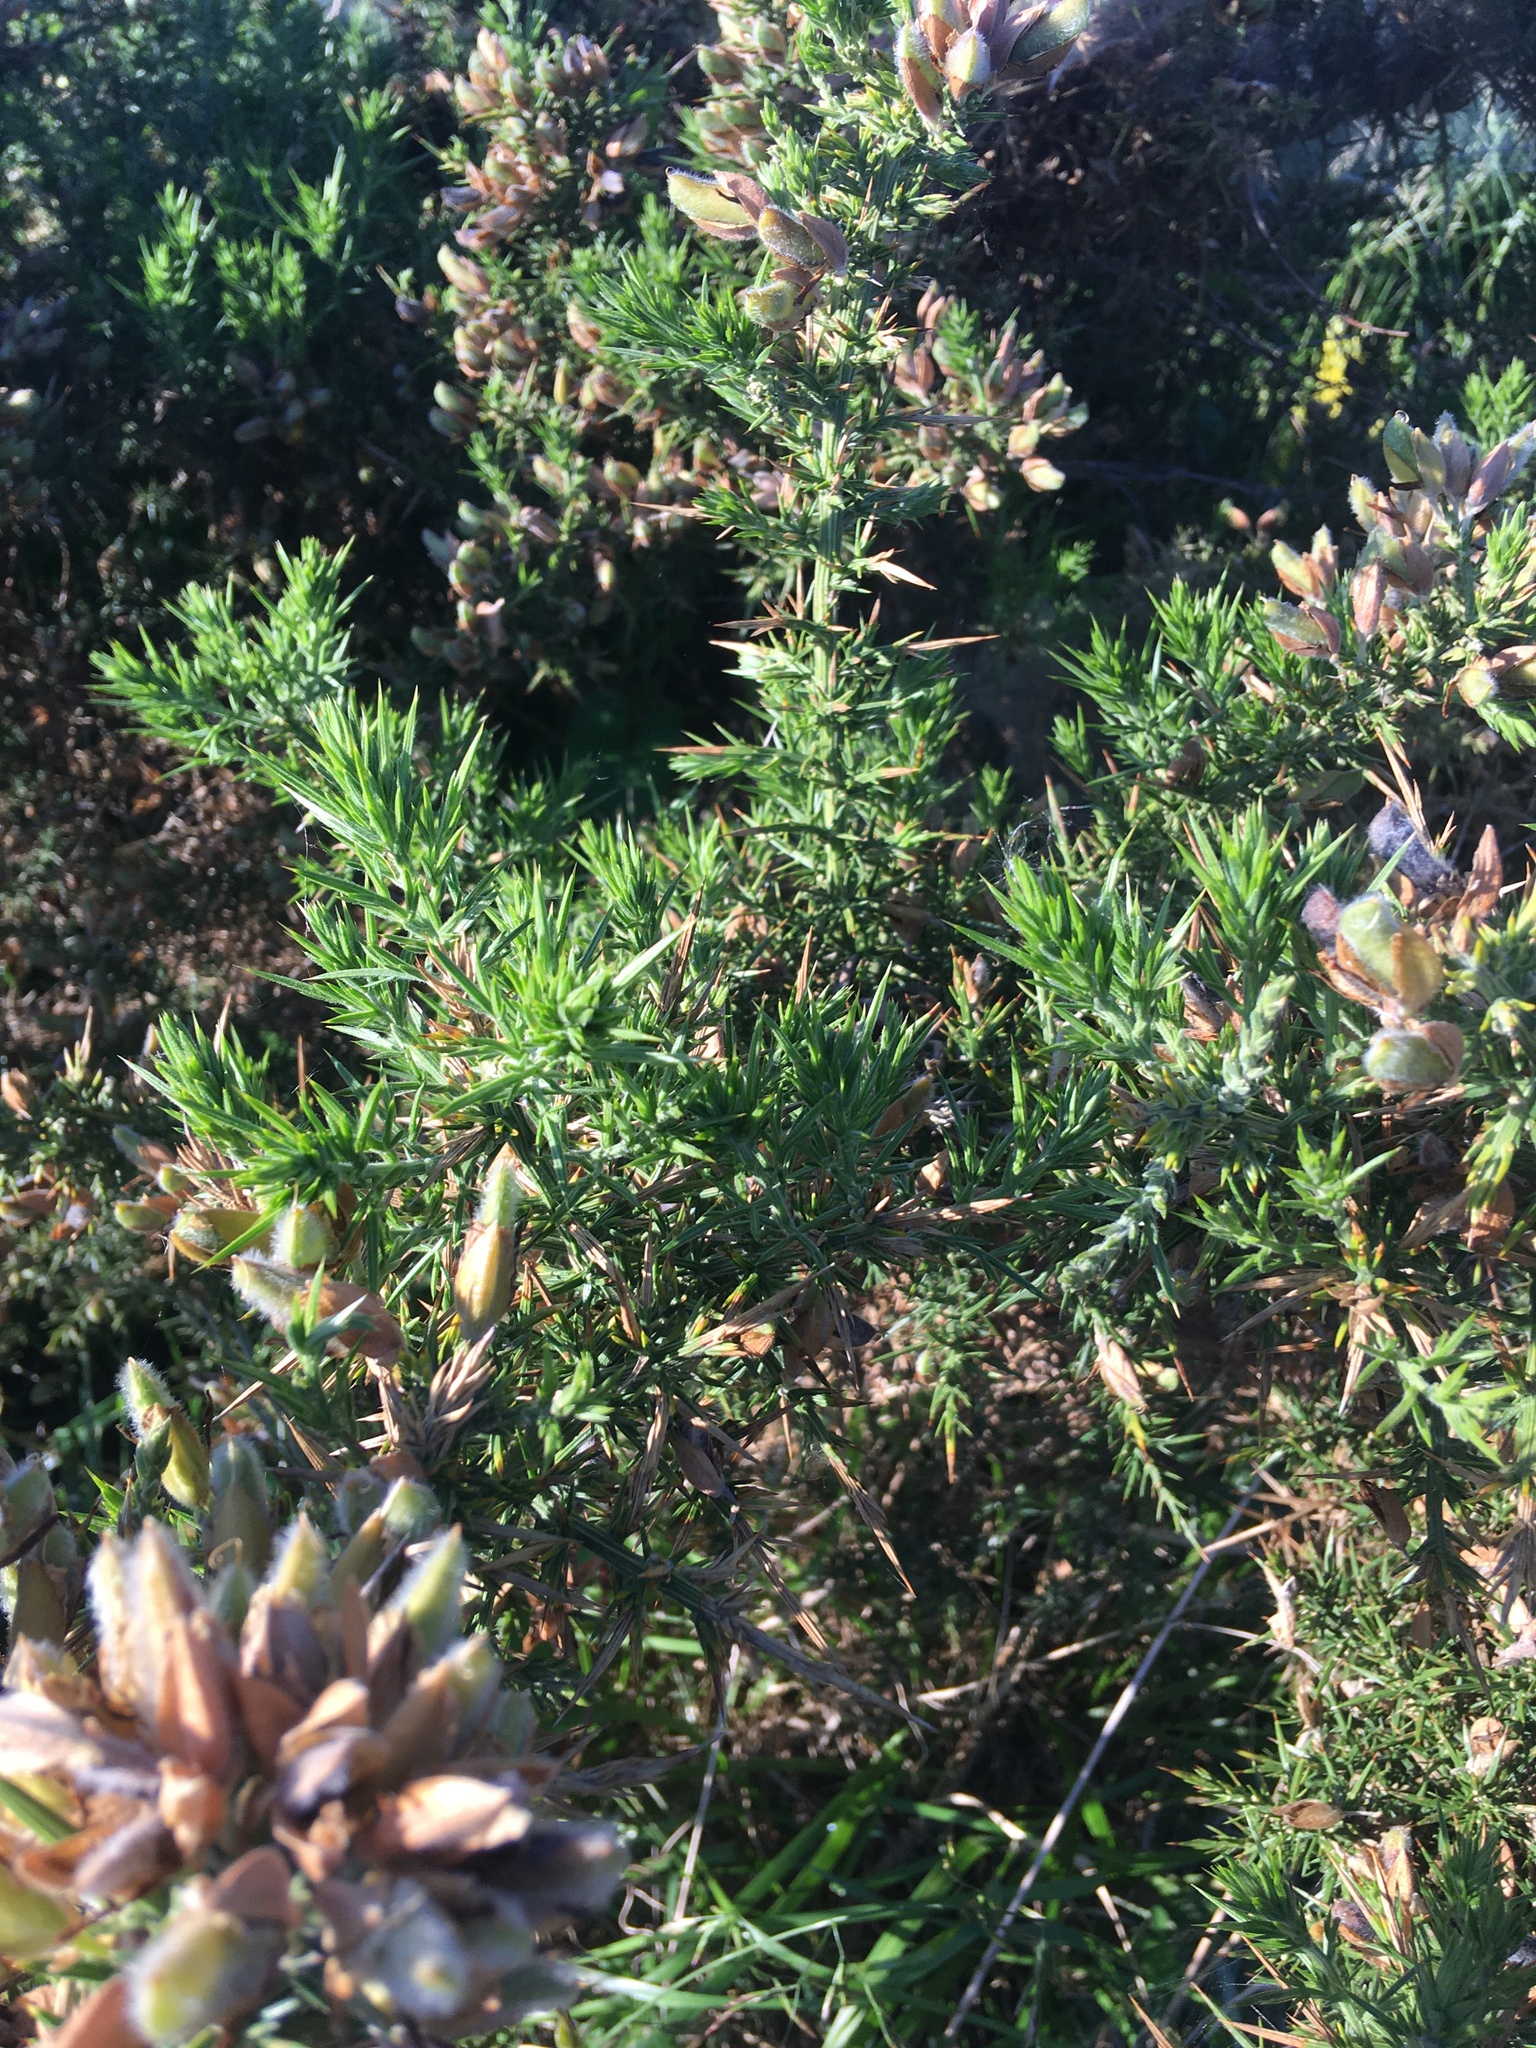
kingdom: Plantae
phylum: Tracheophyta
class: Magnoliopsida
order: Fabales
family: Fabaceae
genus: Ulex
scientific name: Ulex europaeus
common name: Common gorse
